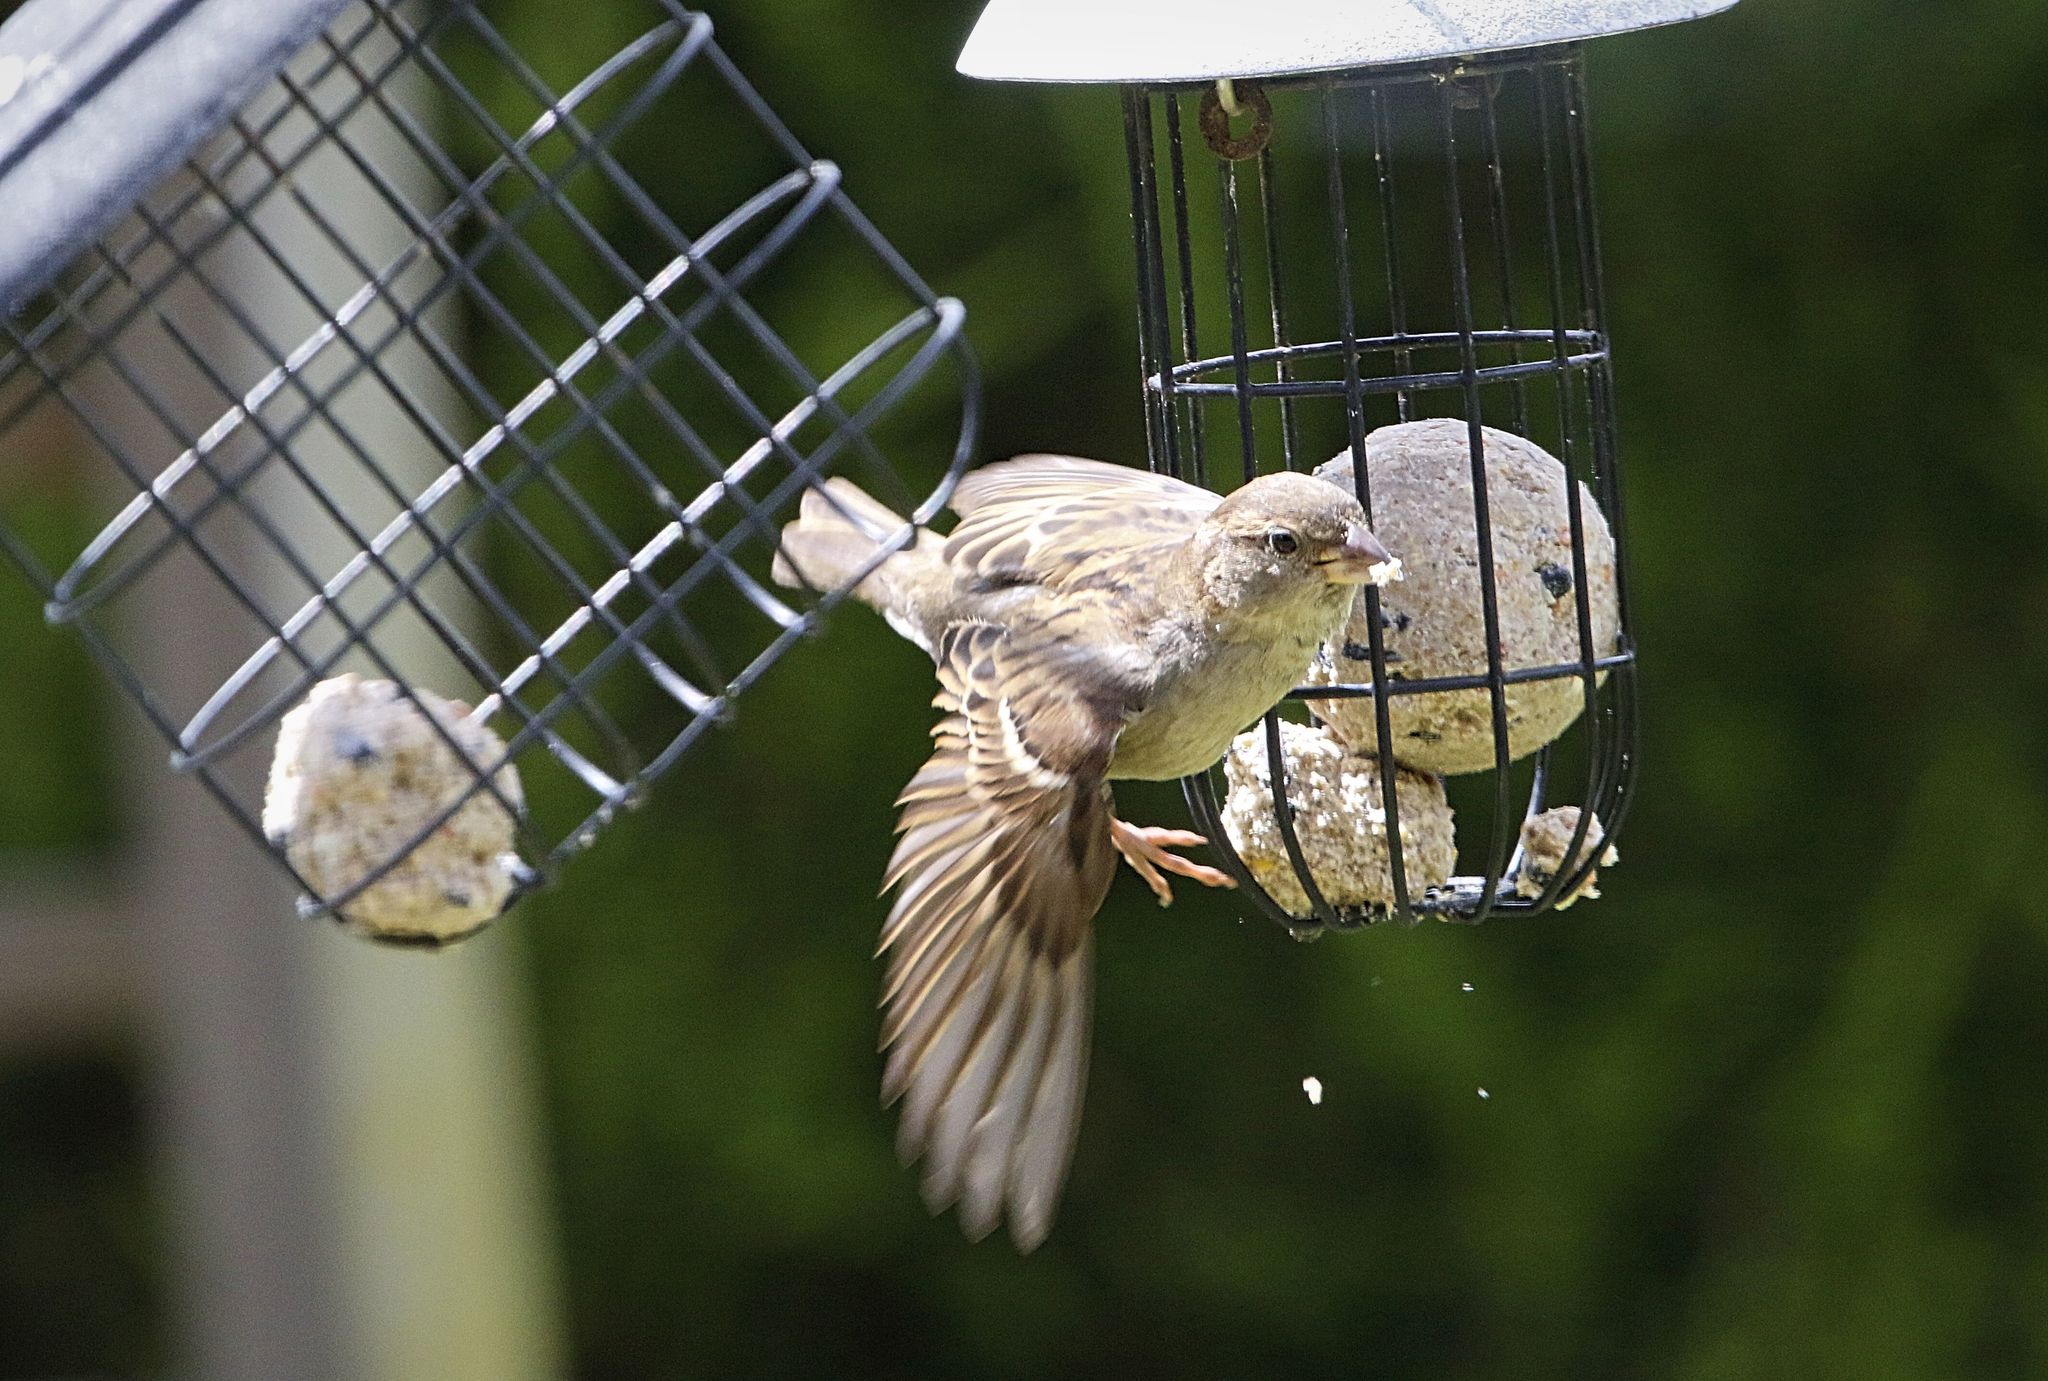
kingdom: Animalia
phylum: Chordata
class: Aves
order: Passeriformes
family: Passeridae
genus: Passer
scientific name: Passer domesticus
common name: House sparrow
